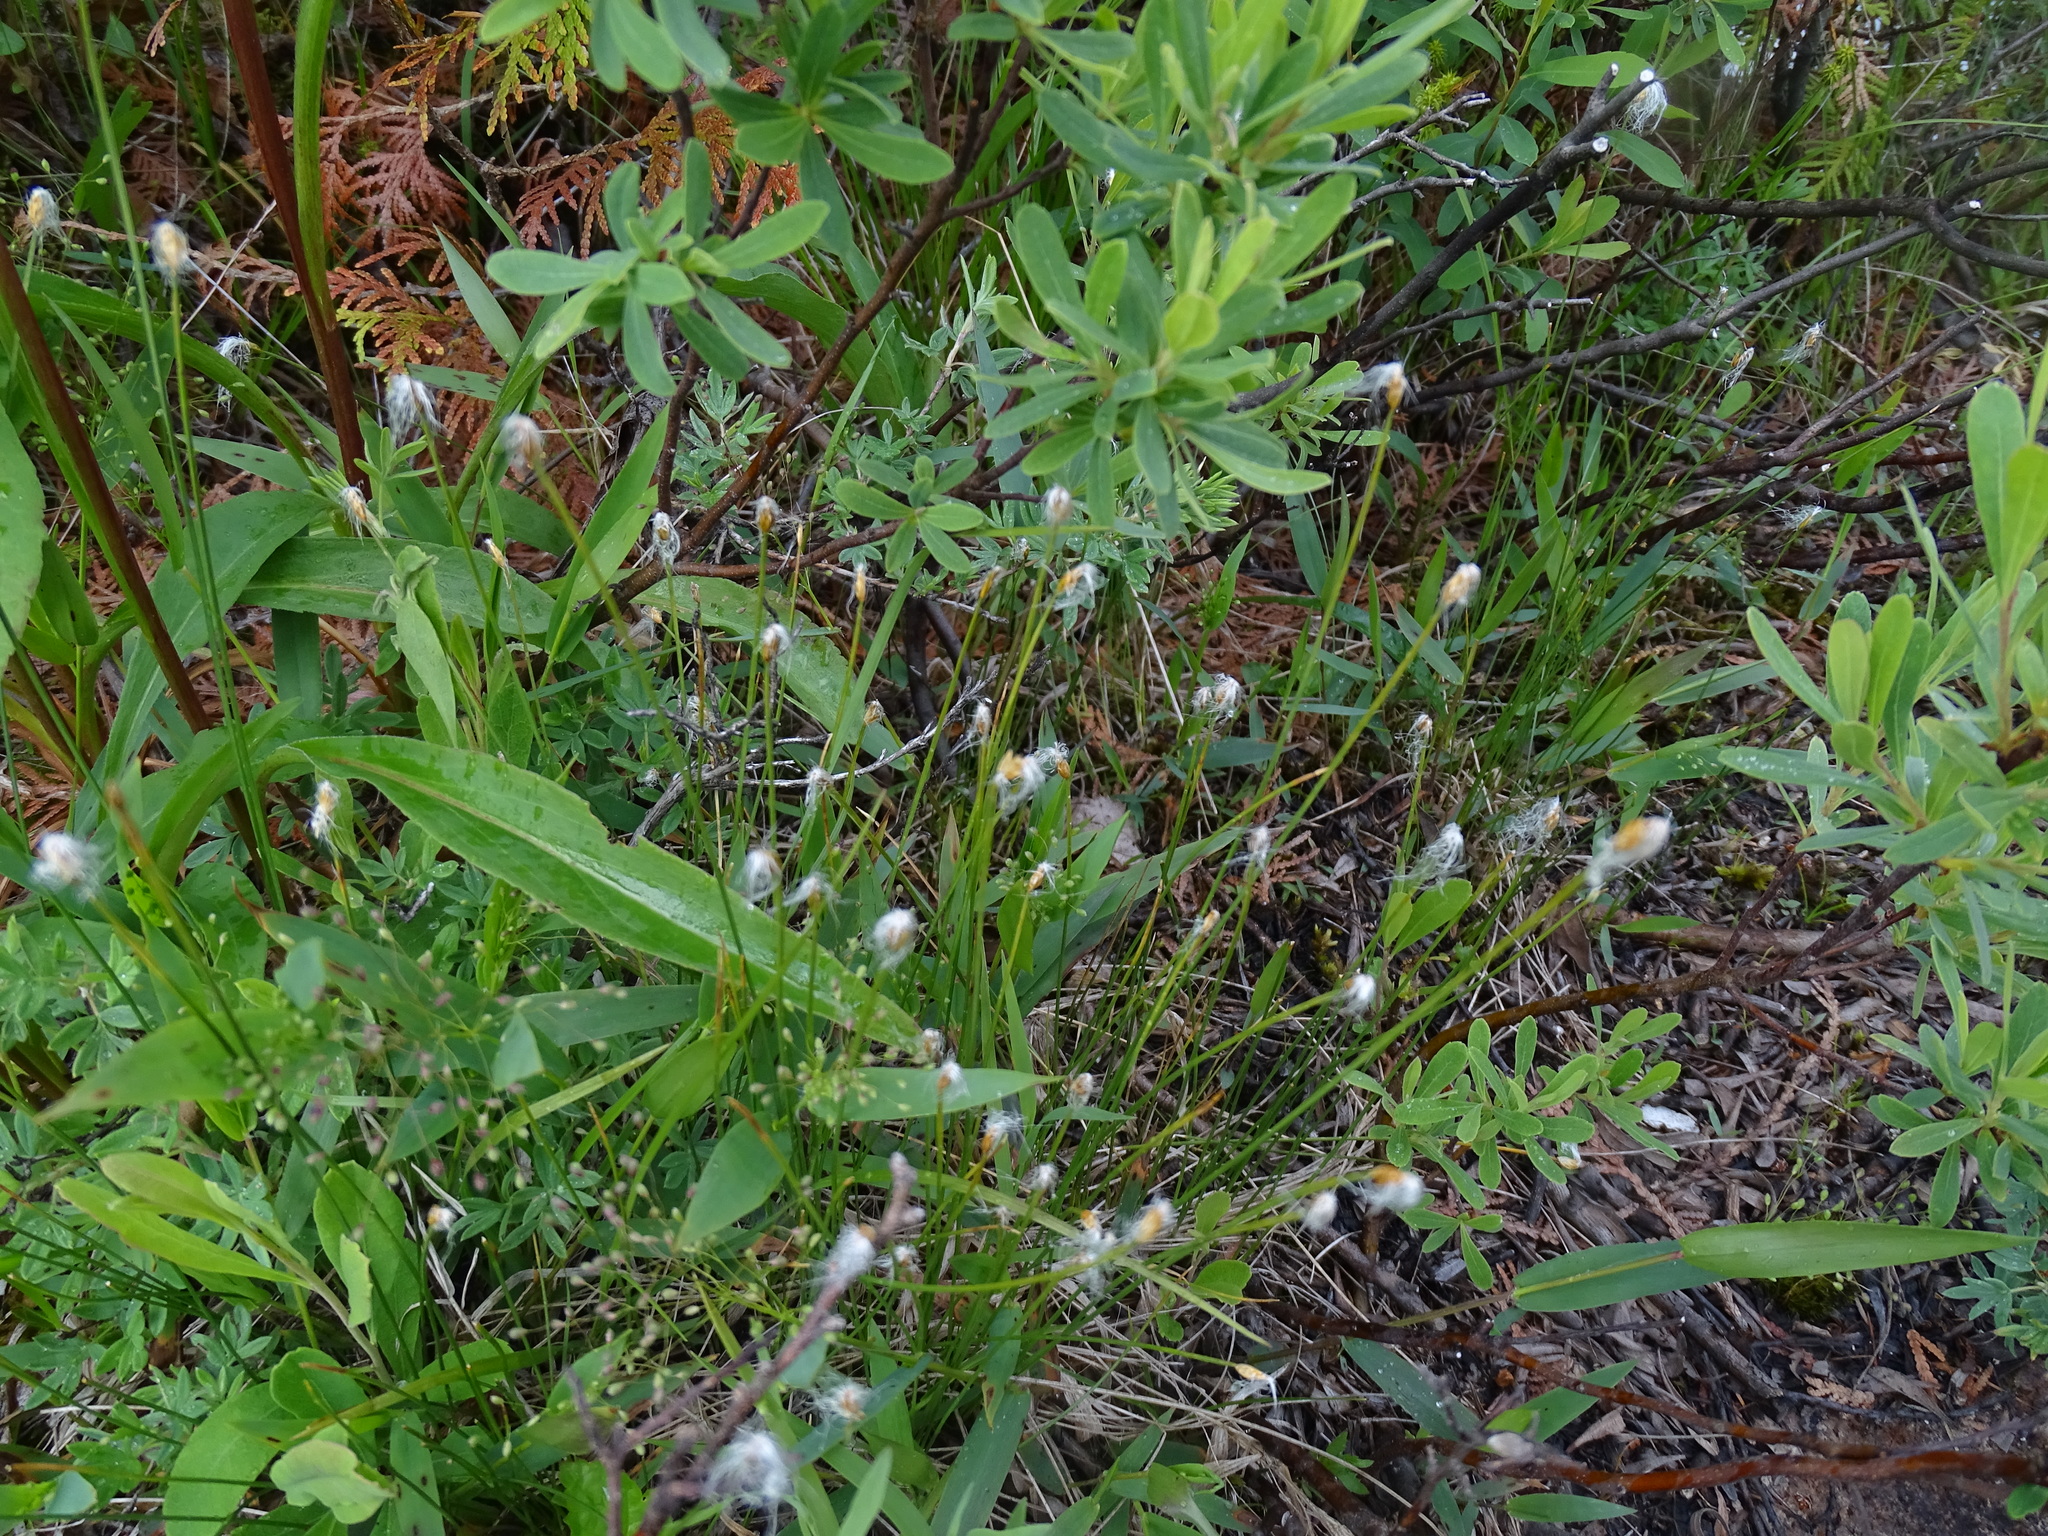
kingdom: Plantae
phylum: Tracheophyta
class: Liliopsida
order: Poales
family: Cyperaceae
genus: Trichophorum
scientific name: Trichophorum alpinum
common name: Alpine bulrush
